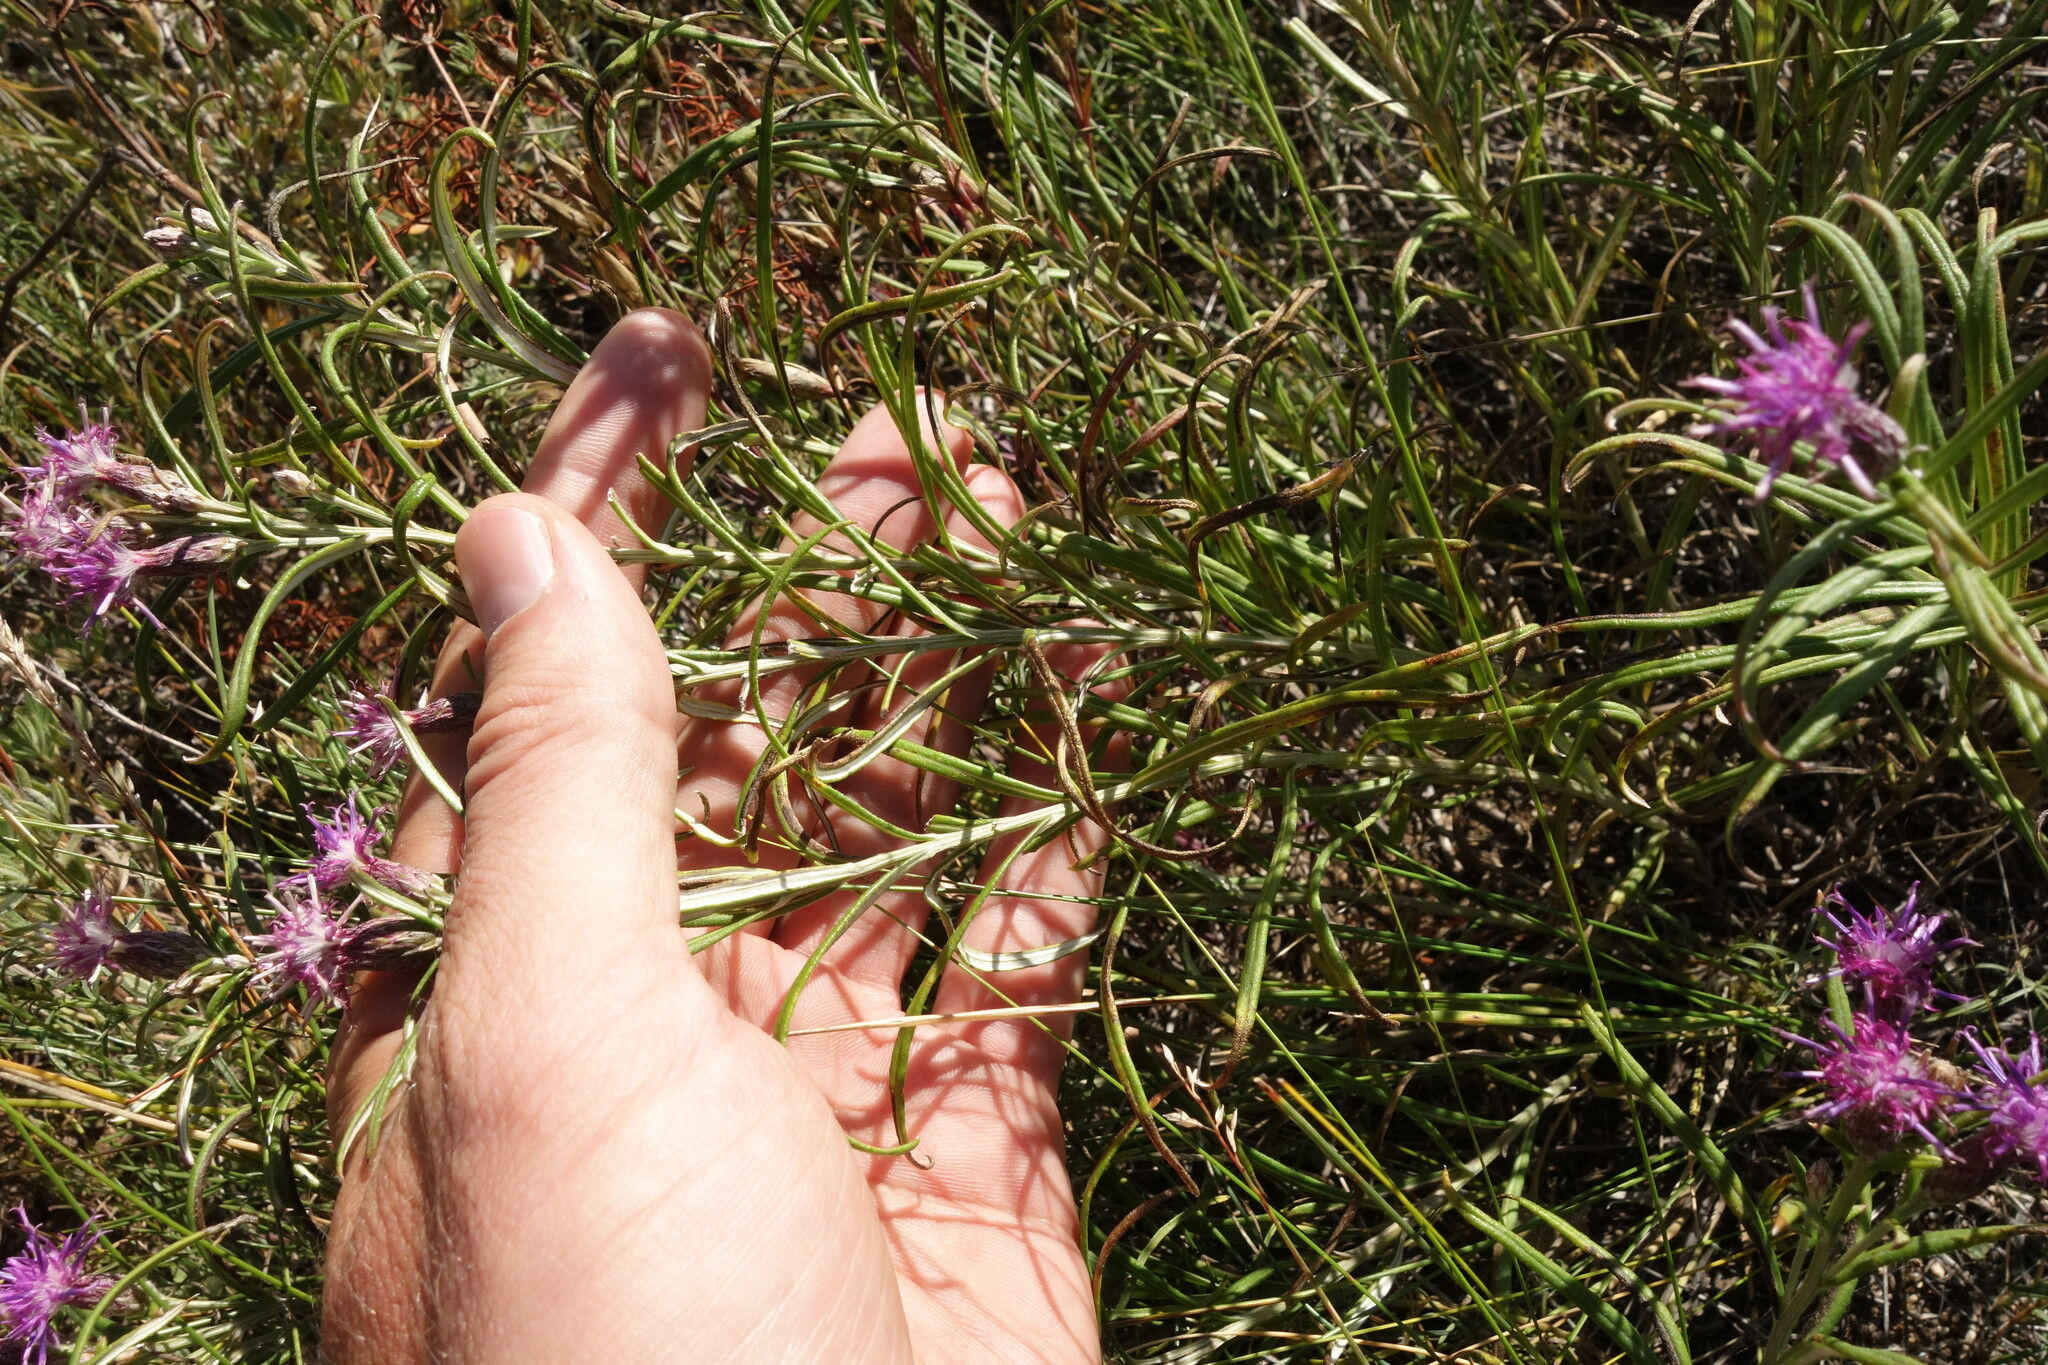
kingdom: Plantae
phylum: Tracheophyta
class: Magnoliopsida
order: Asterales
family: Asteraceae
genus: Saussurea
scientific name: Saussurea salicifolia
